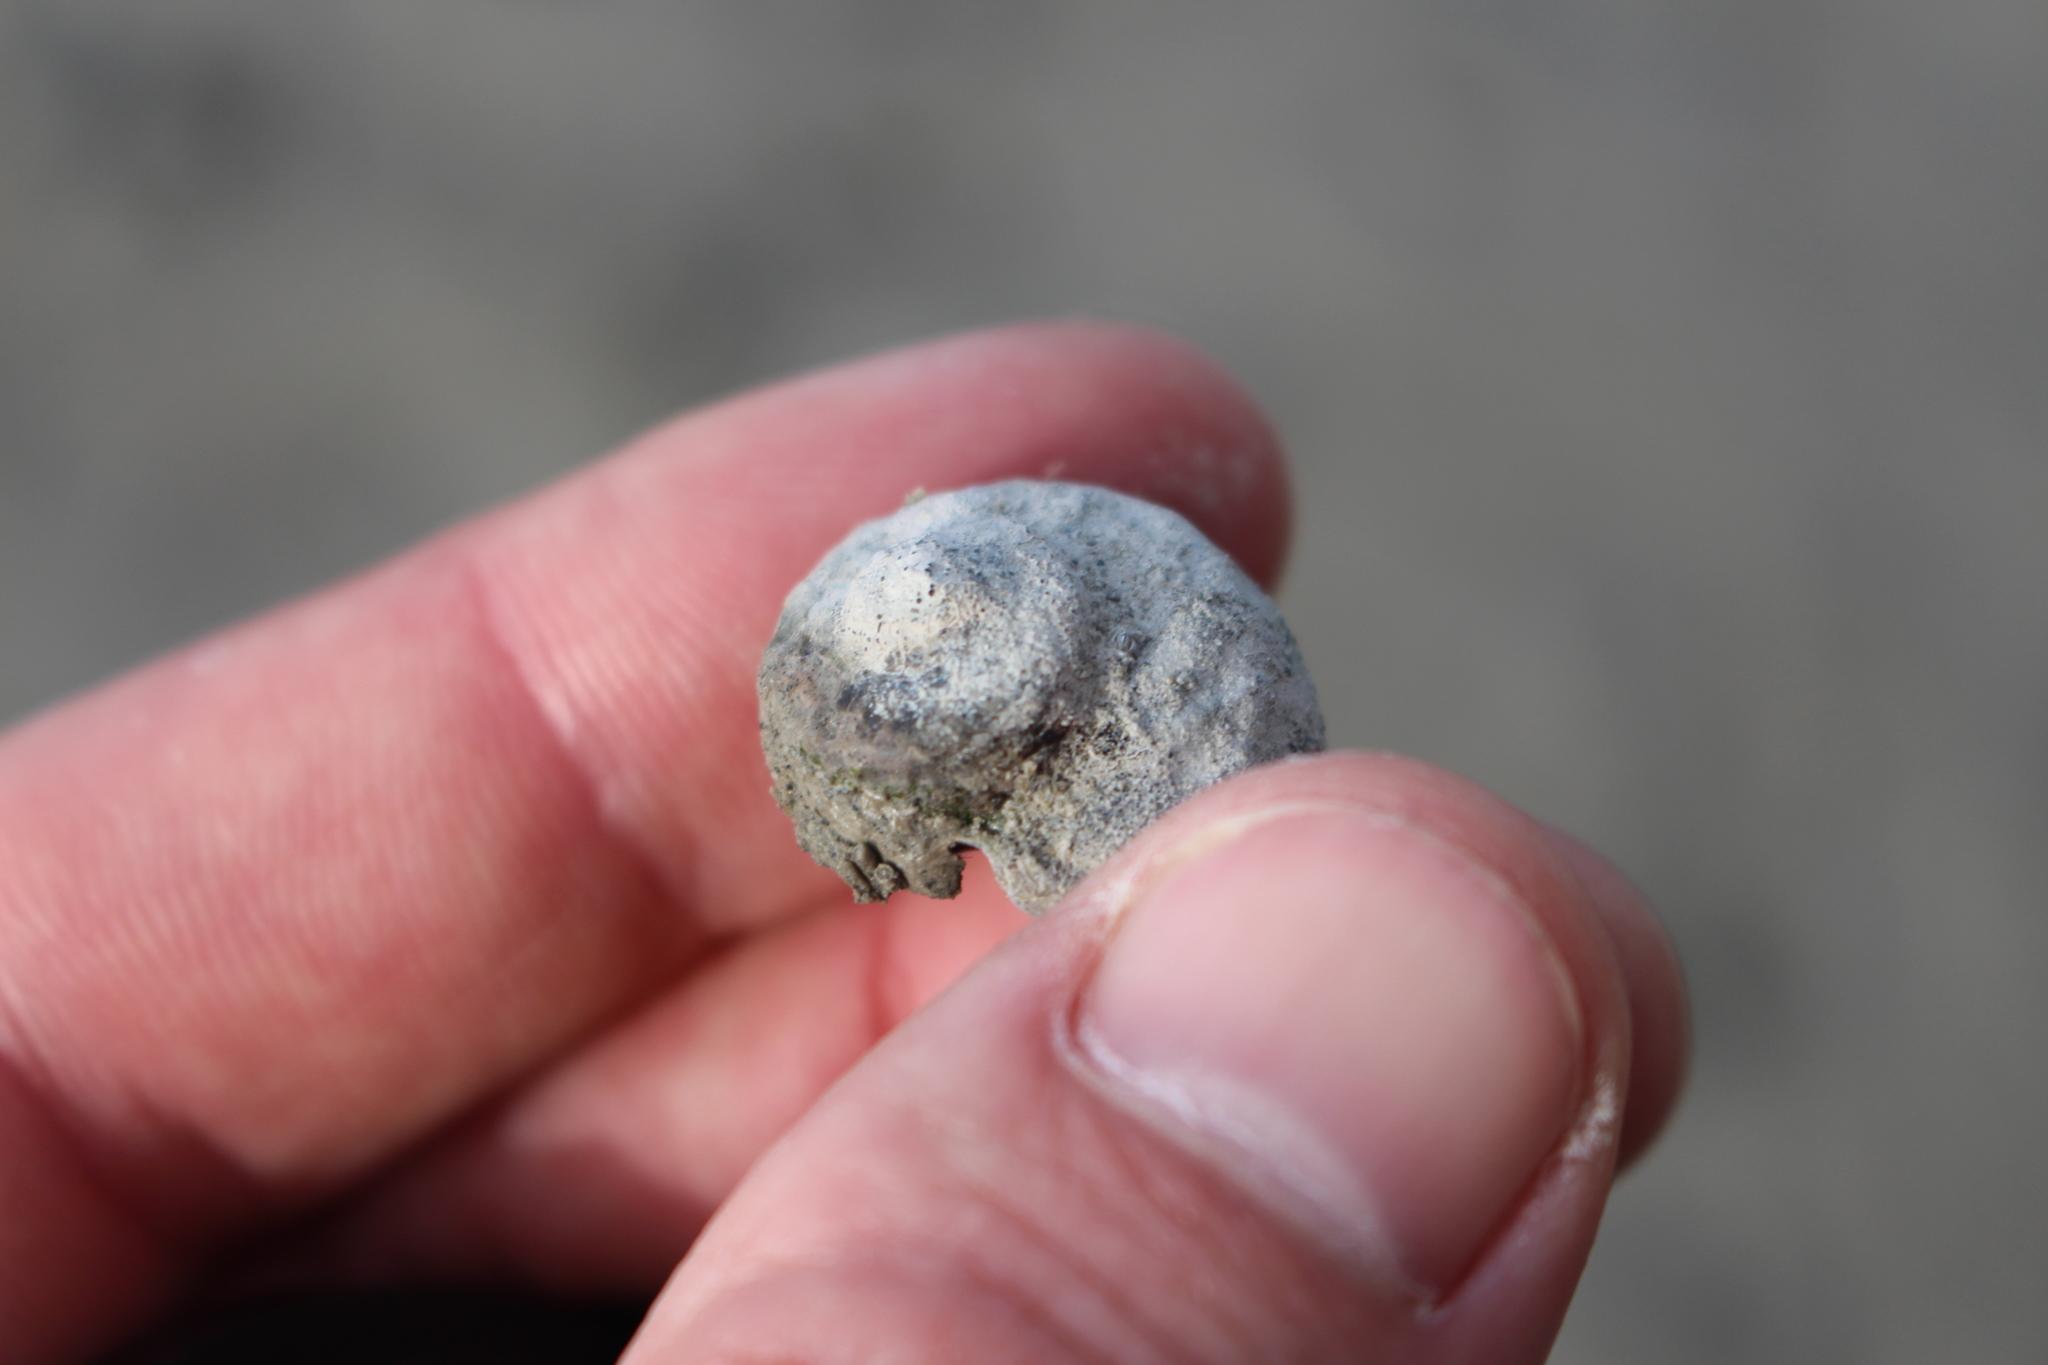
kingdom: Animalia
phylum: Mollusca
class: Gastropoda
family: Amphibolidae
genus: Amphibola
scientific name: Amphibola crenata
